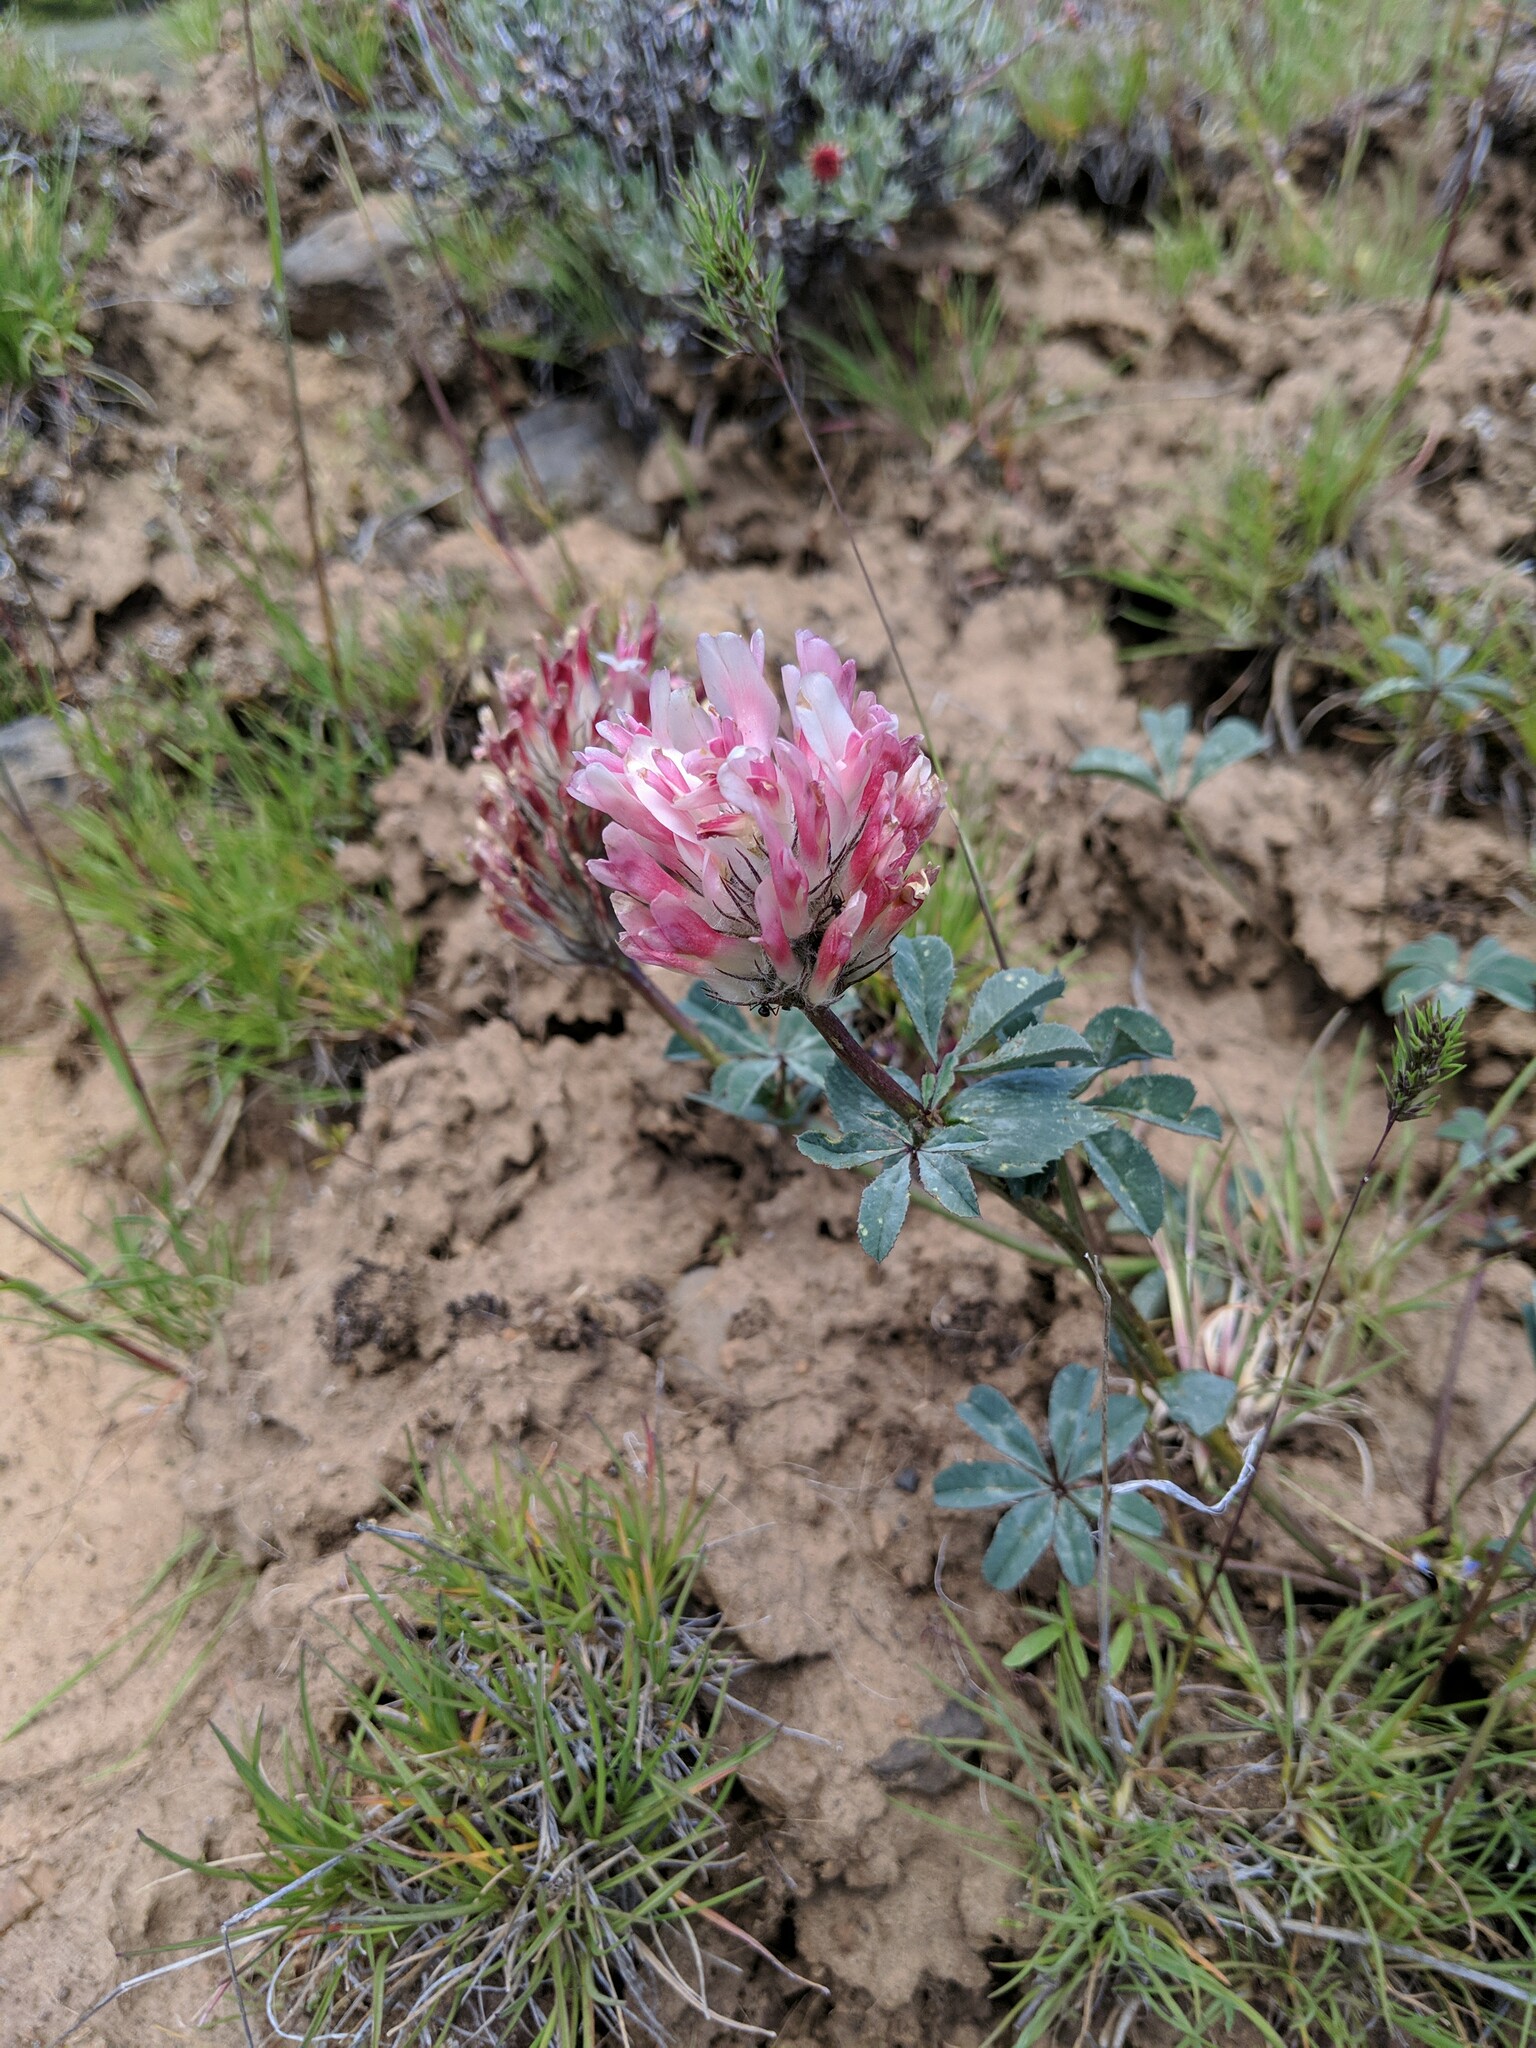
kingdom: Plantae
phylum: Tracheophyta
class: Magnoliopsida
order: Fabales
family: Fabaceae
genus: Trifolium
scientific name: Trifolium macrocephalum
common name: Large-head clover
